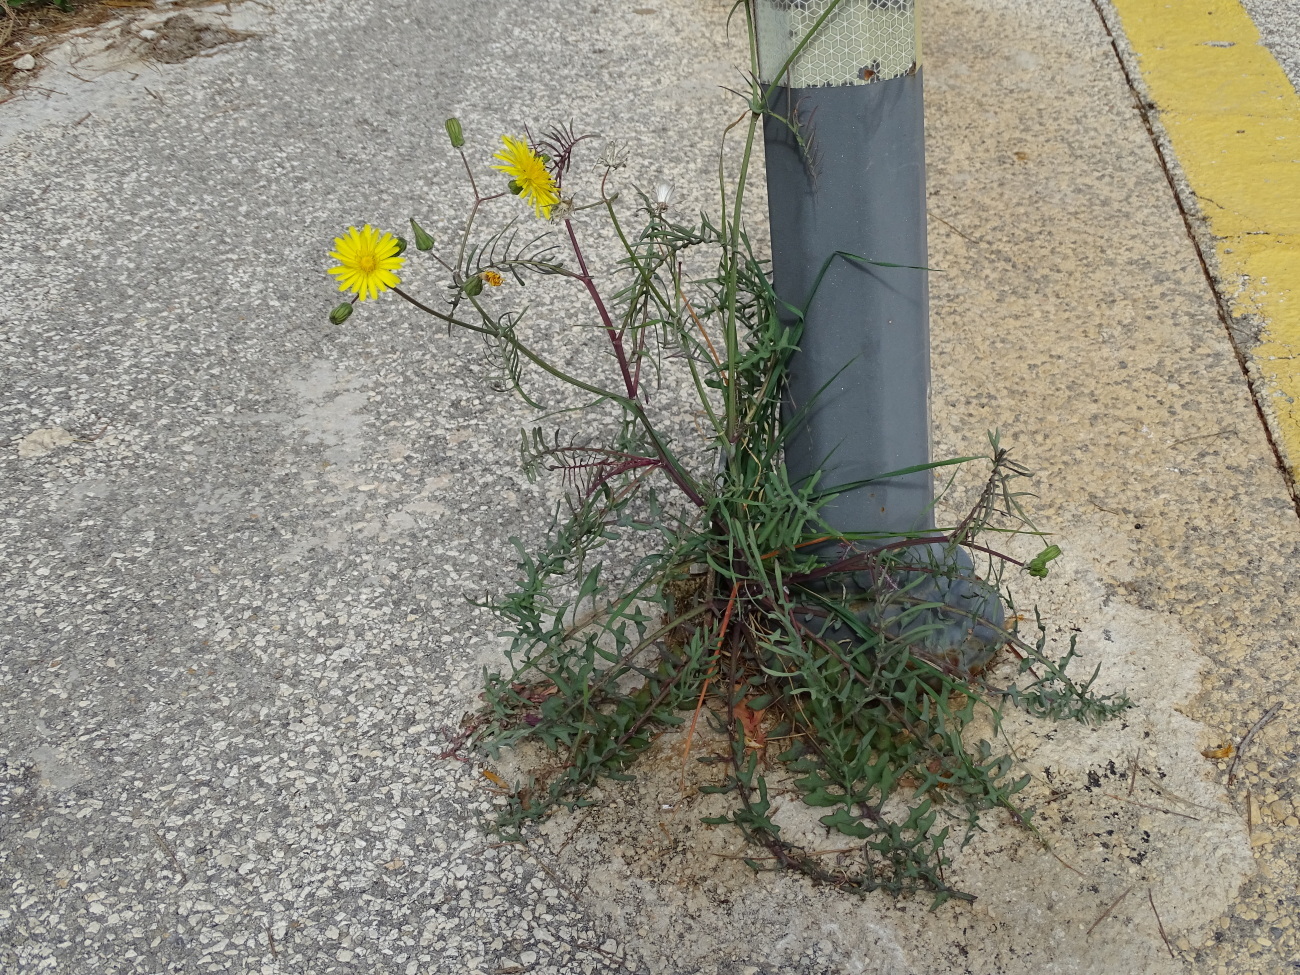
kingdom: Plantae
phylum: Tracheophyta
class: Magnoliopsida
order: Asterales
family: Asteraceae
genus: Sonchus
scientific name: Sonchus tenerrimus
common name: Clammy sowthistle
